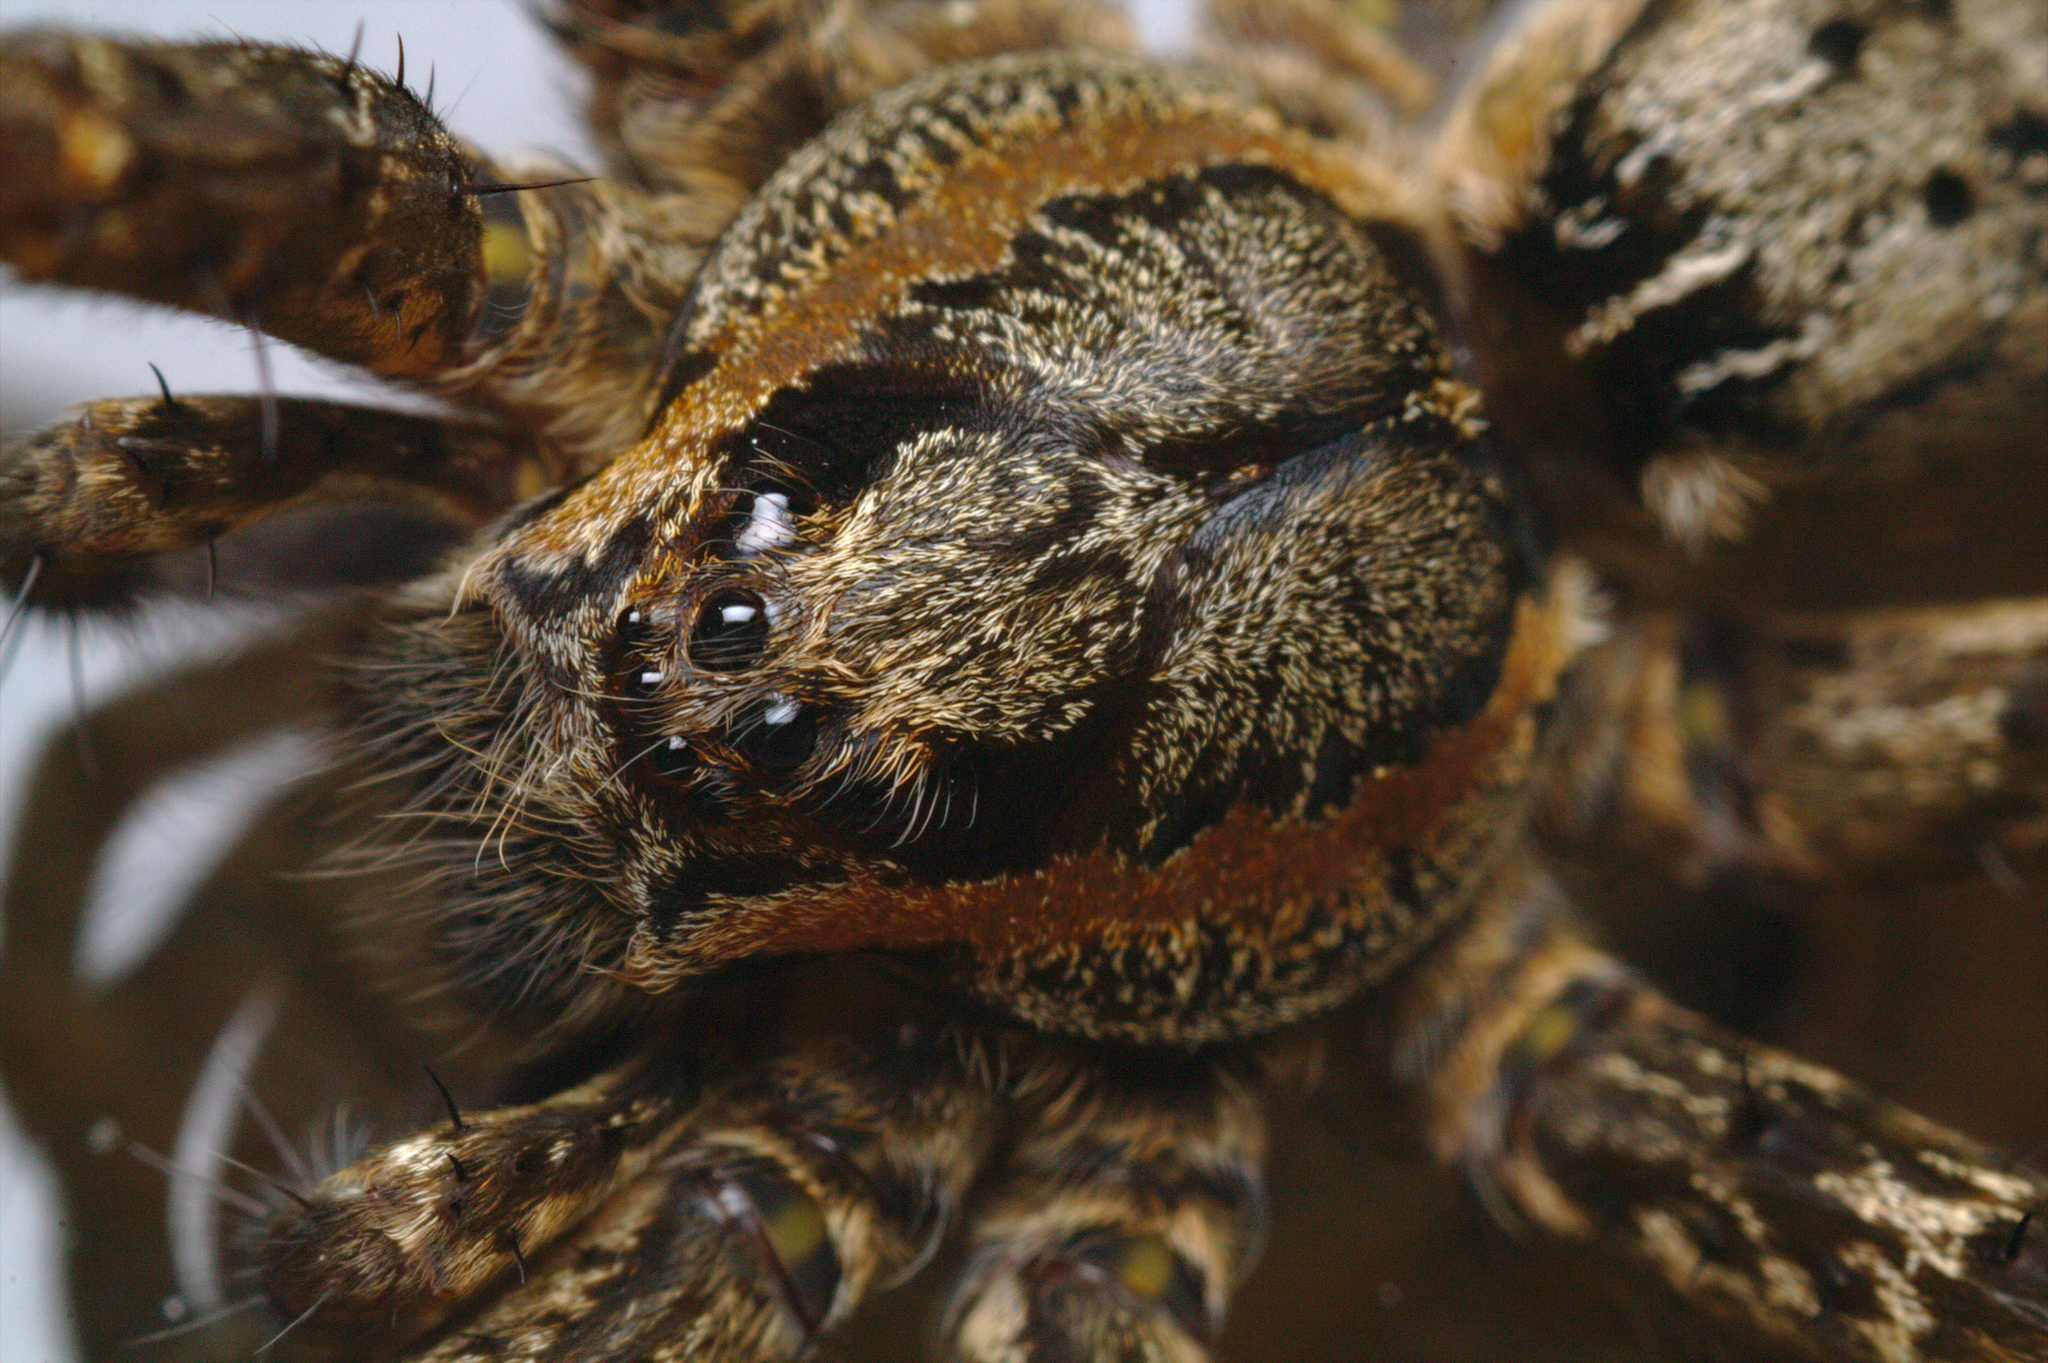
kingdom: Animalia
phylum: Arthropoda
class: Arachnida
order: Araneae
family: Pisauridae
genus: Dolomedes
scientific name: Dolomedes dondalei
